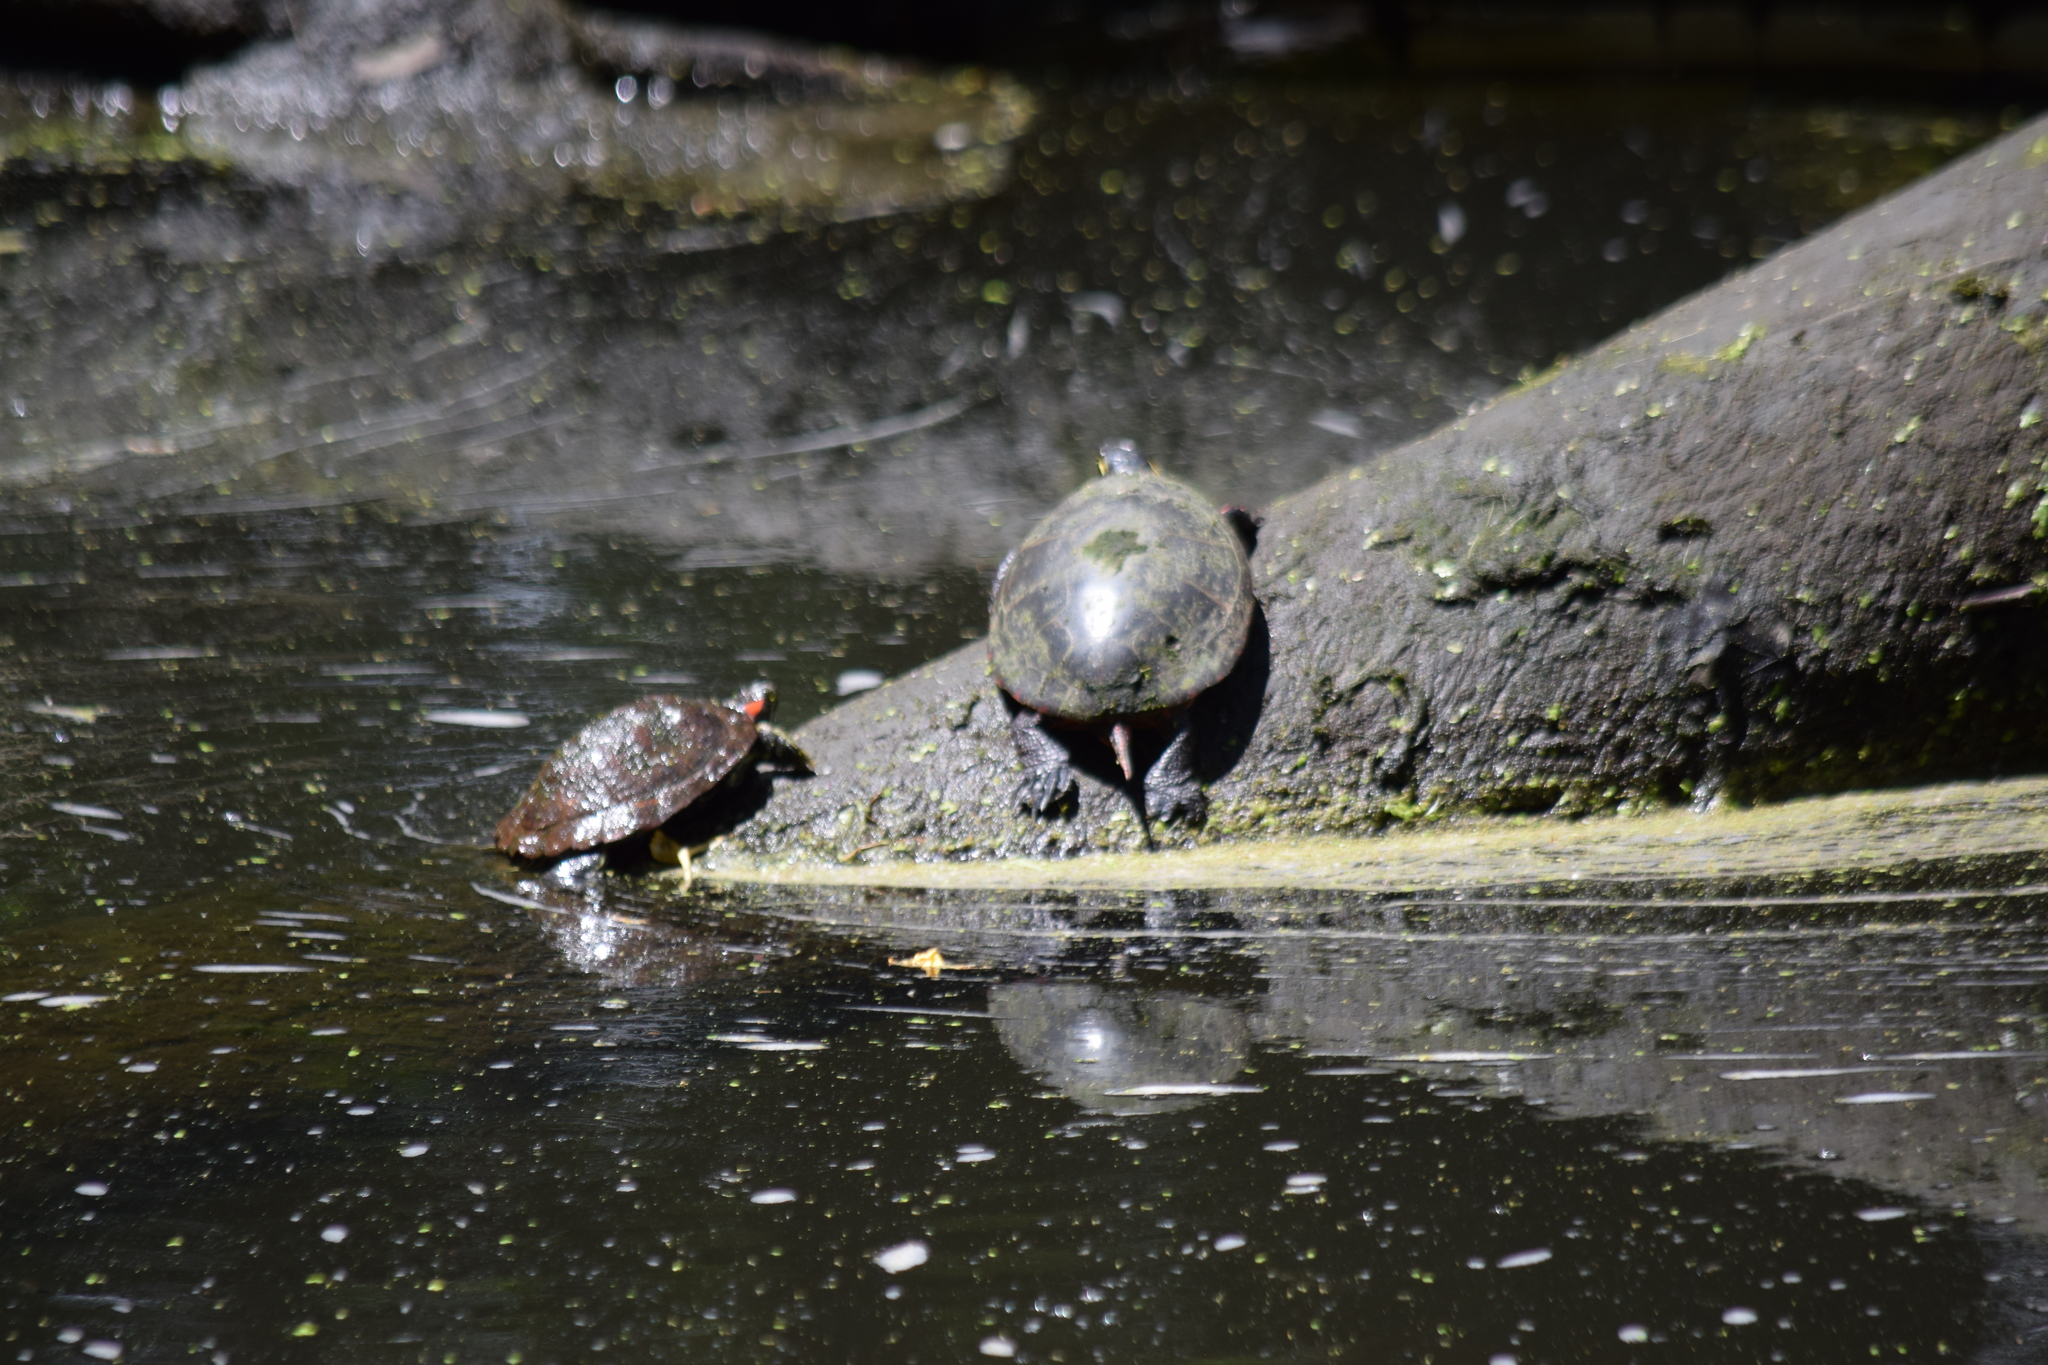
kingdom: Animalia
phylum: Chordata
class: Testudines
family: Emydidae
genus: Trachemys
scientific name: Trachemys scripta
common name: Slider
